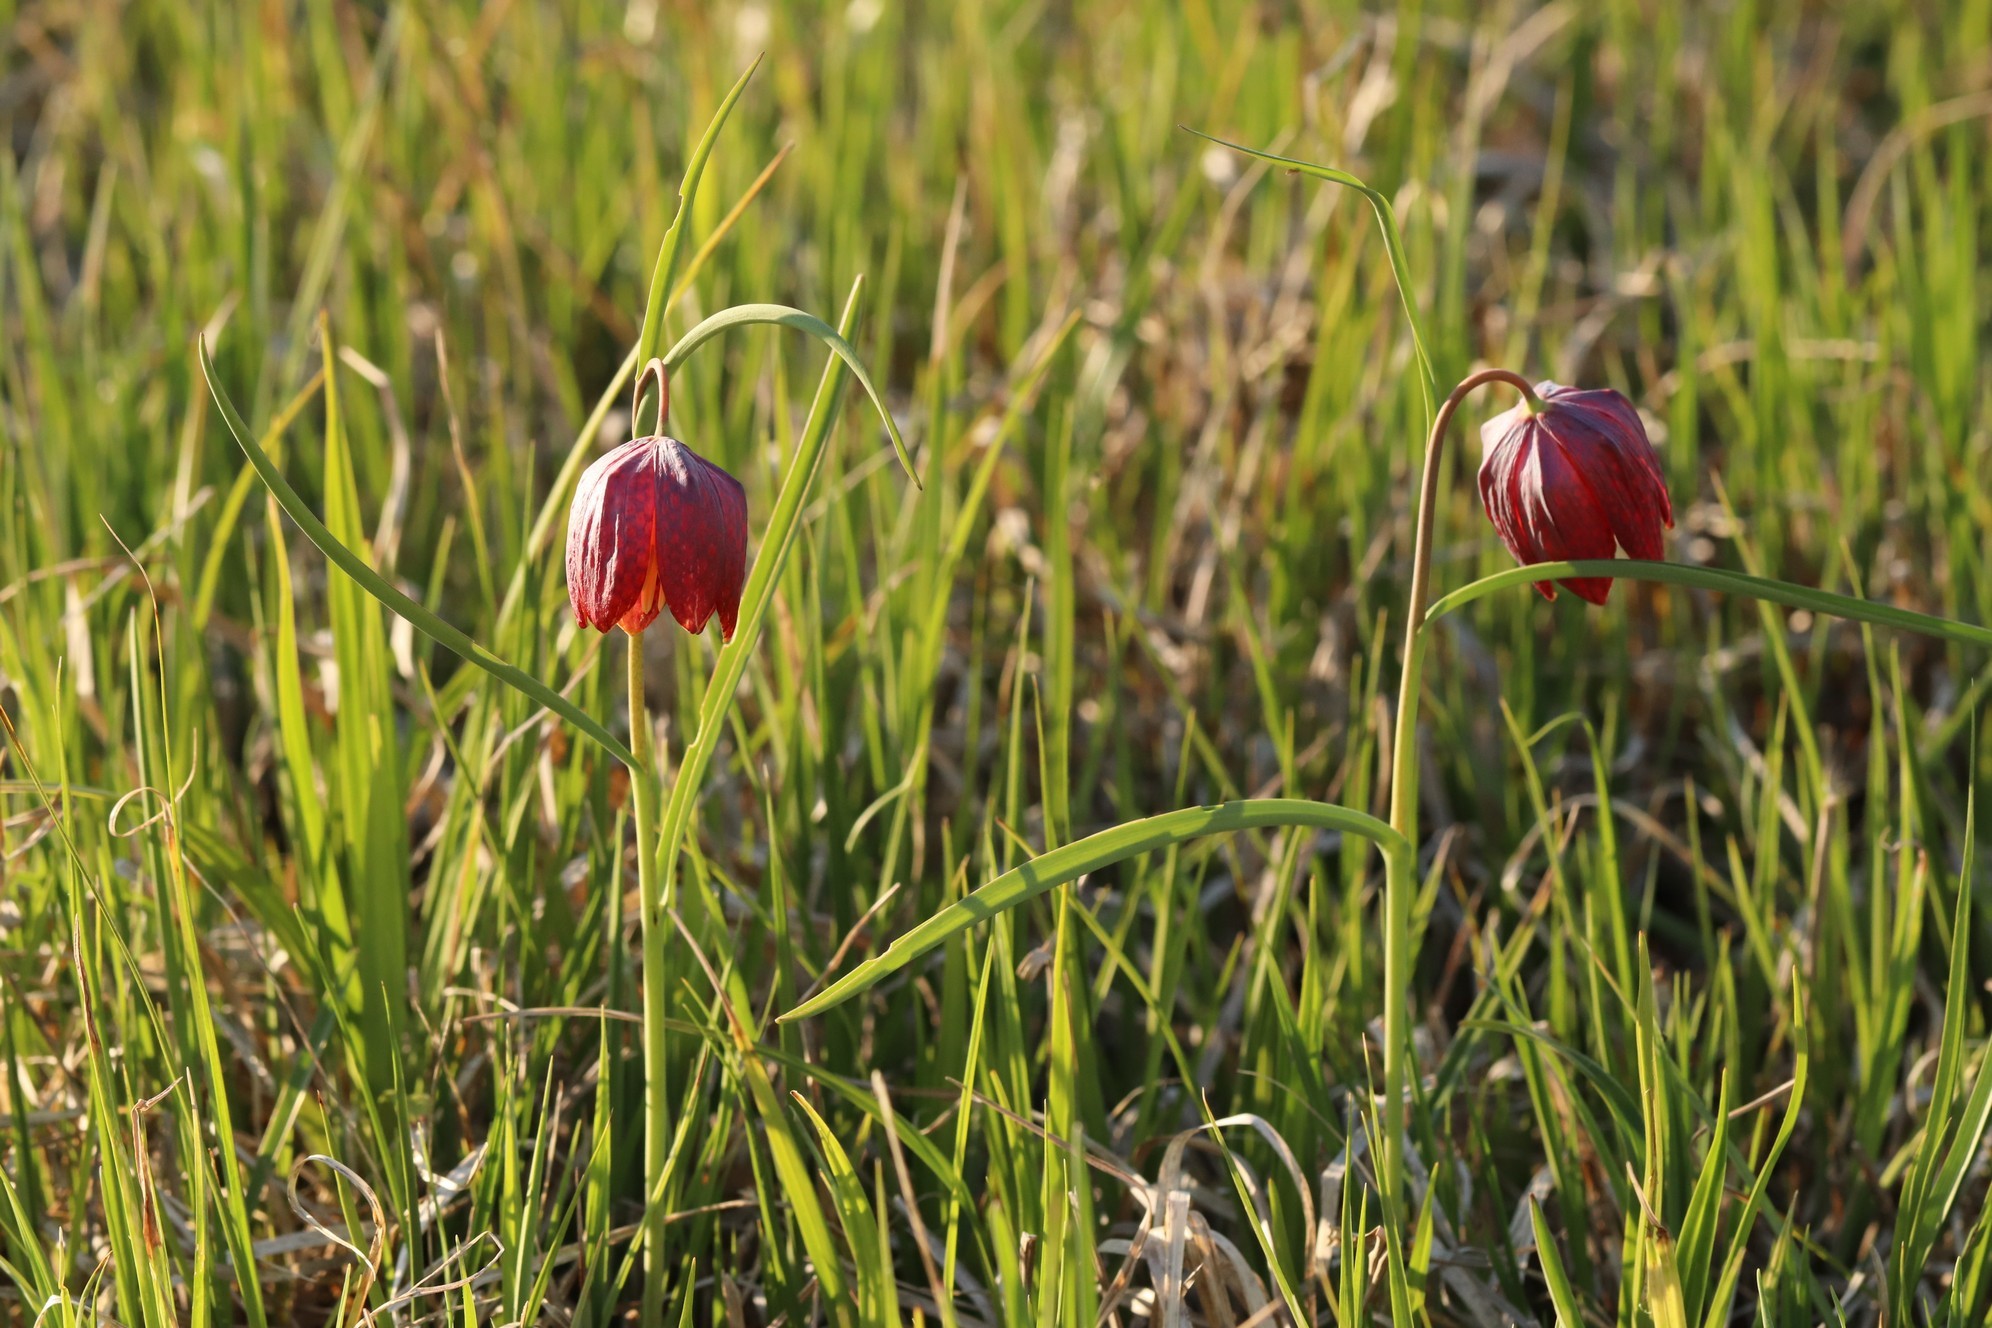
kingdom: Plantae
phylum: Tracheophyta
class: Liliopsida
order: Liliales
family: Liliaceae
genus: Fritillaria
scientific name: Fritillaria meleagris
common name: Fritillary
